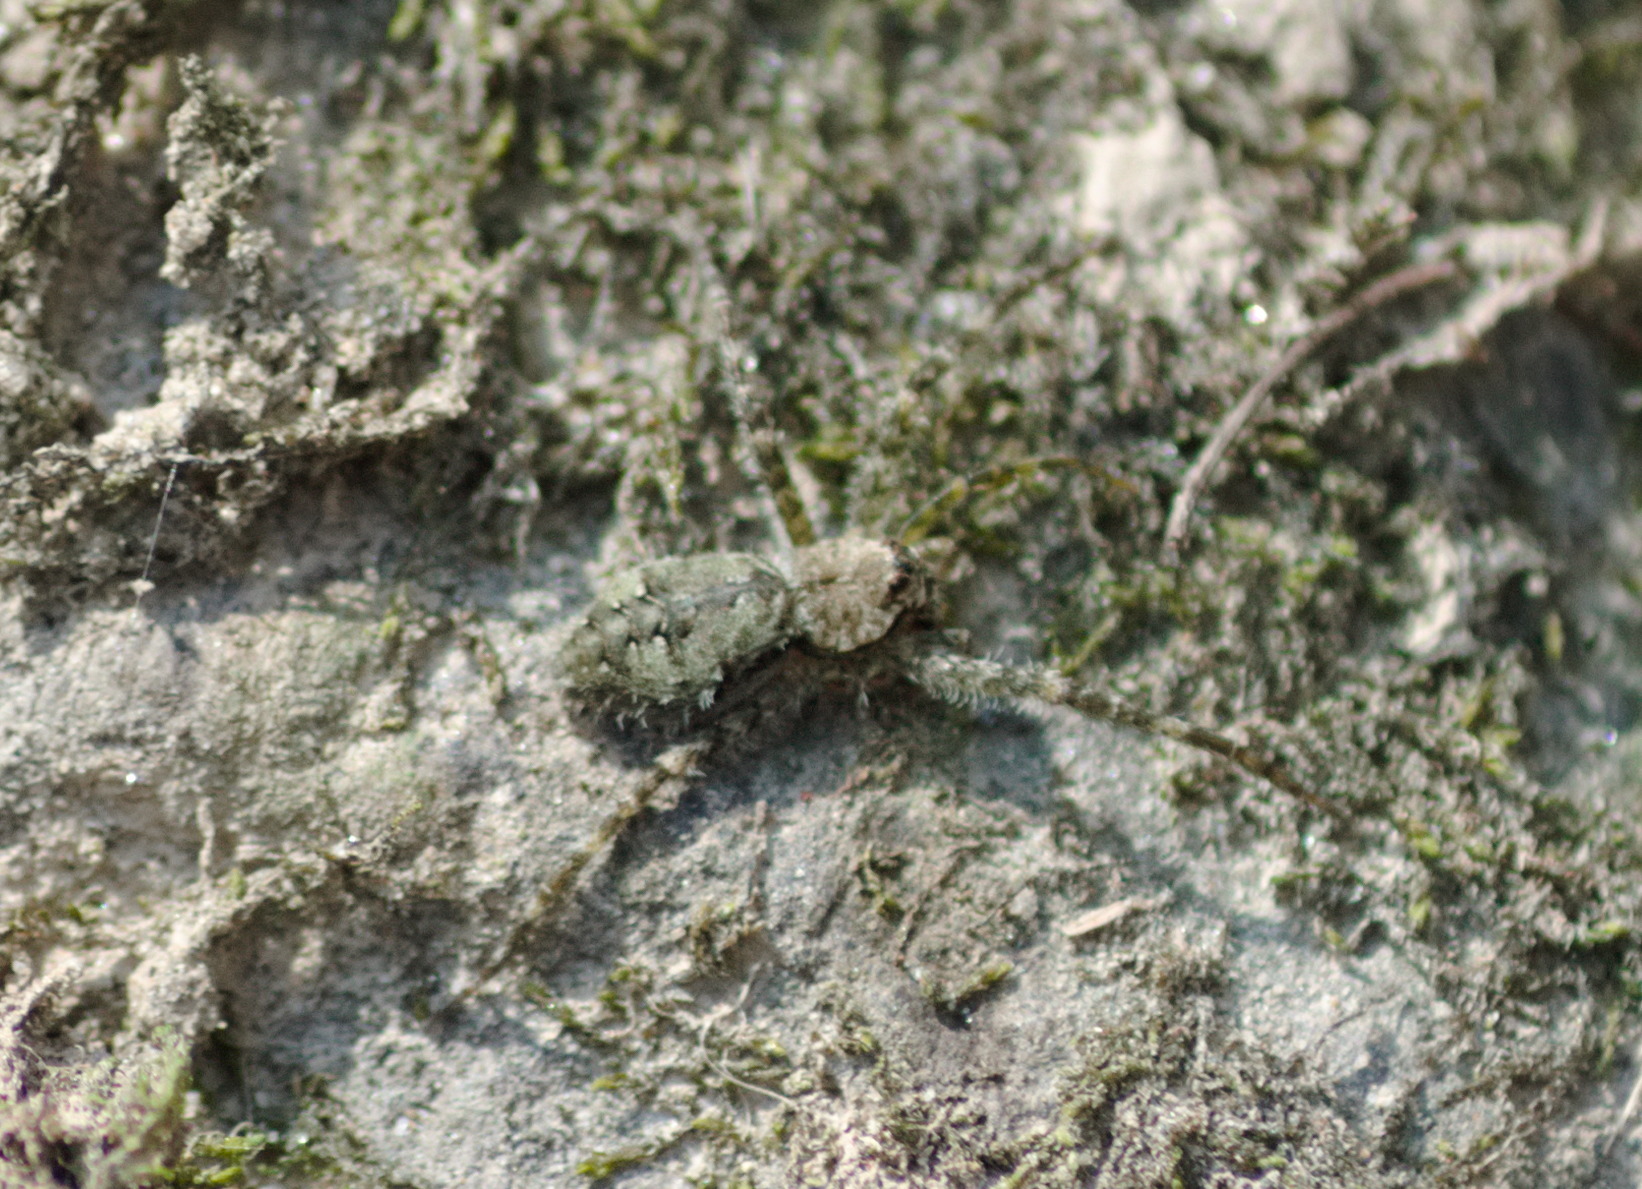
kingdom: Animalia
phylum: Arthropoda
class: Arachnida
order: Araneae
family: Pisauridae
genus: Dolomedes
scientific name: Dolomedes albineus
